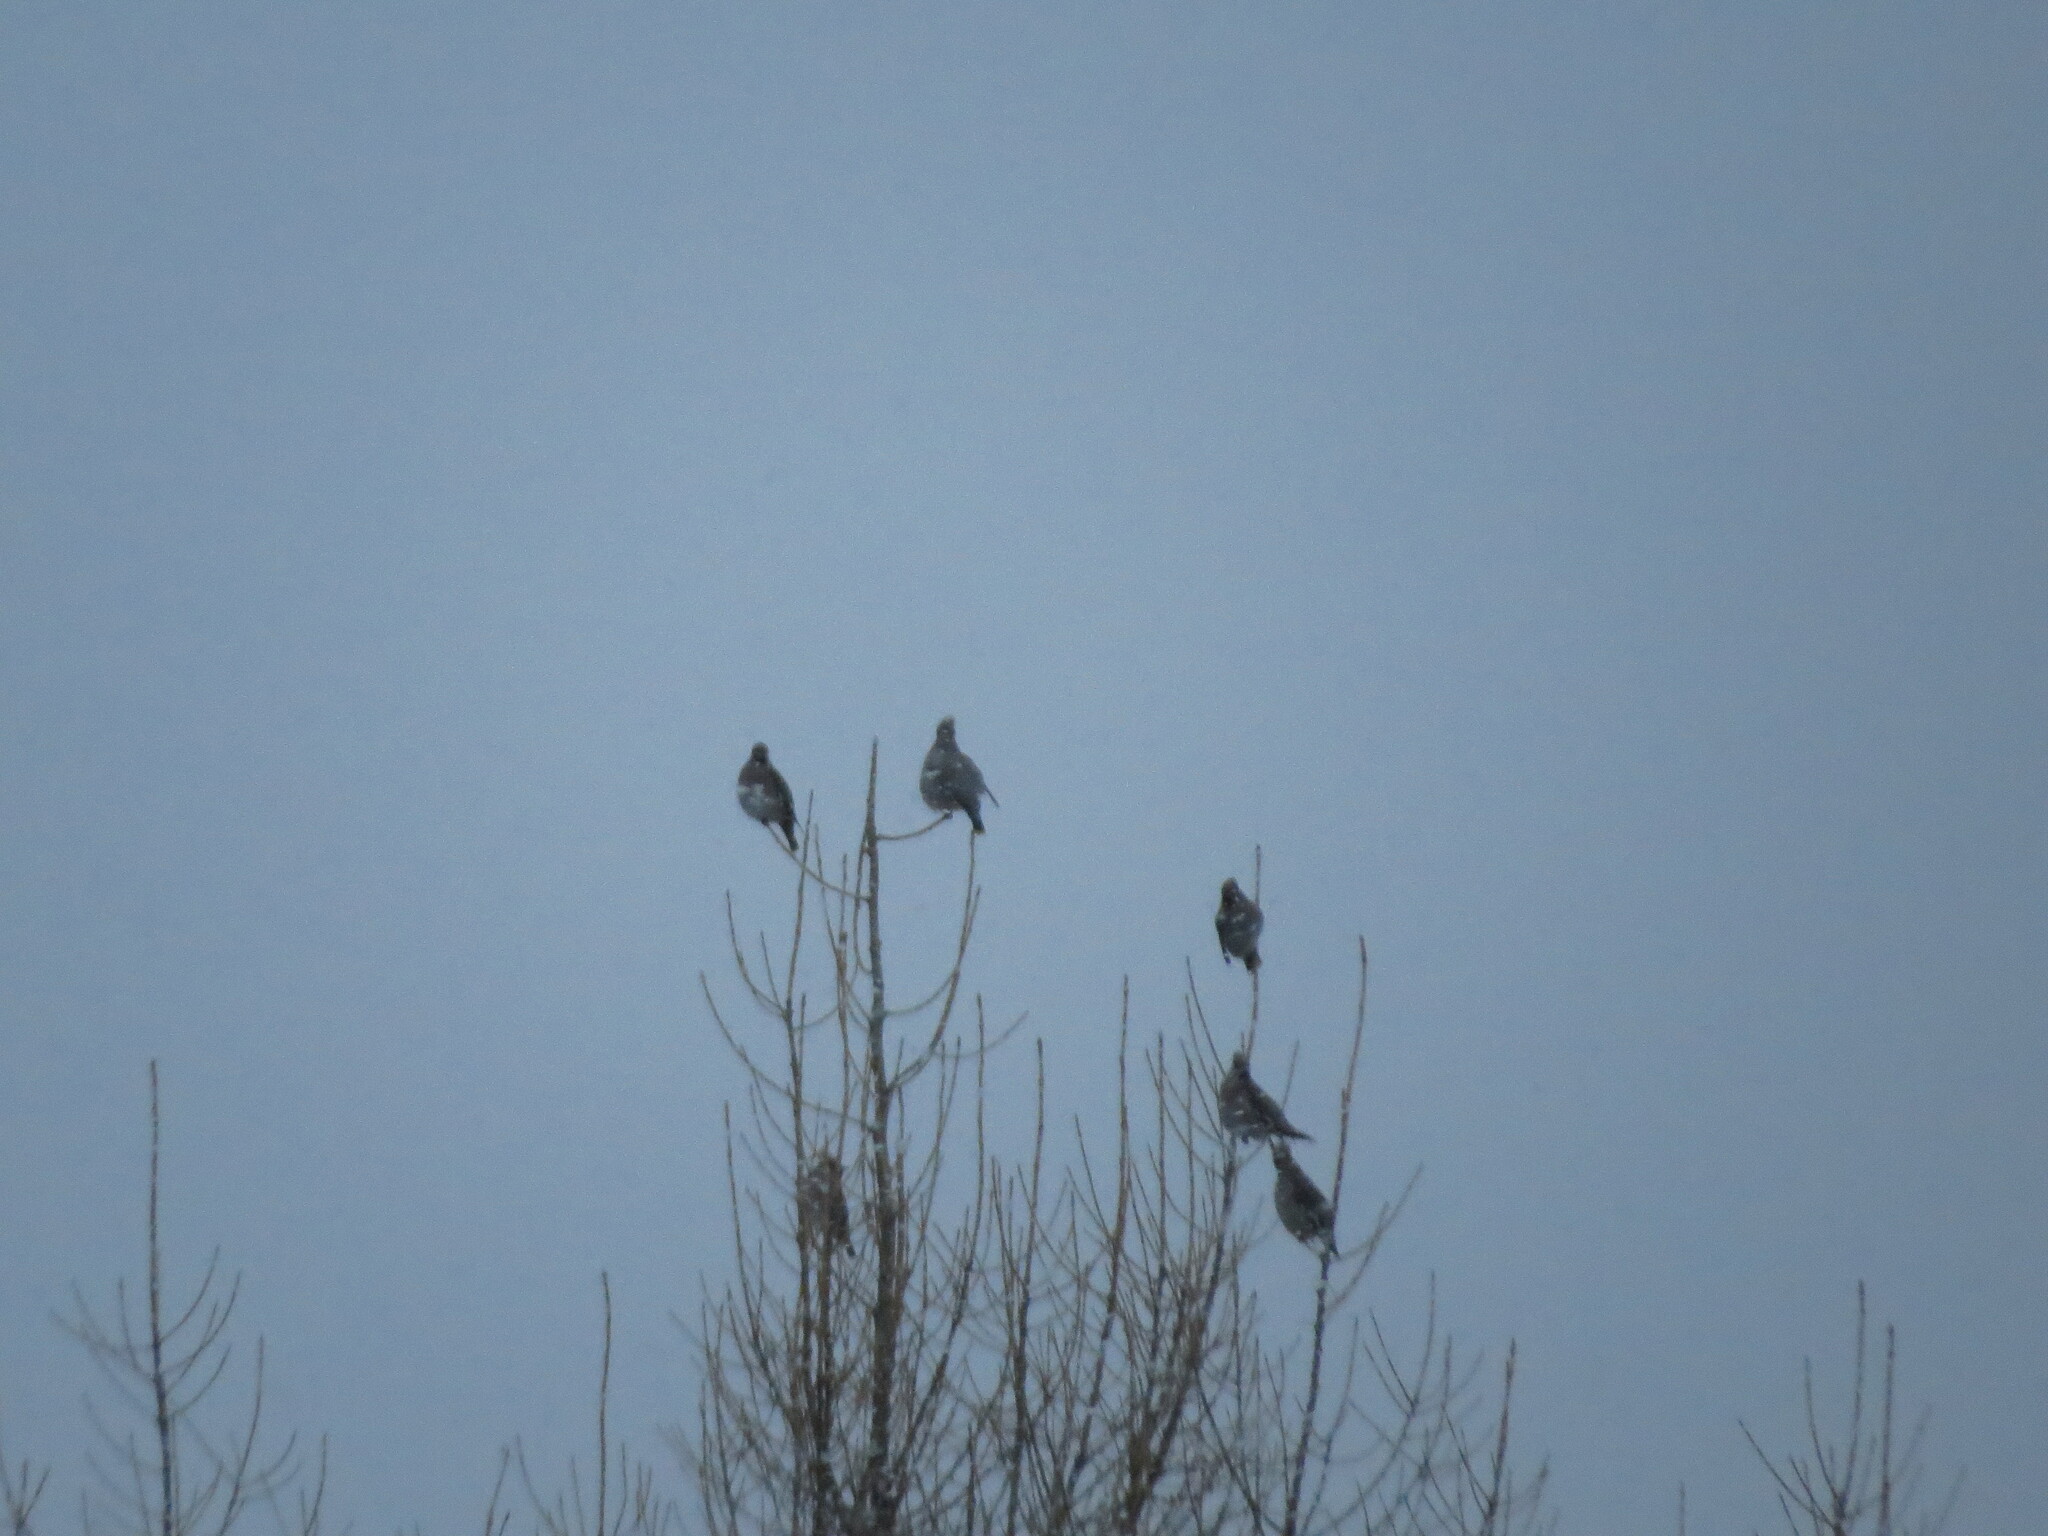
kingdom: Animalia
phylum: Chordata
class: Aves
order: Passeriformes
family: Bombycillidae
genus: Bombycilla
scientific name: Bombycilla garrulus
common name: Bohemian waxwing
